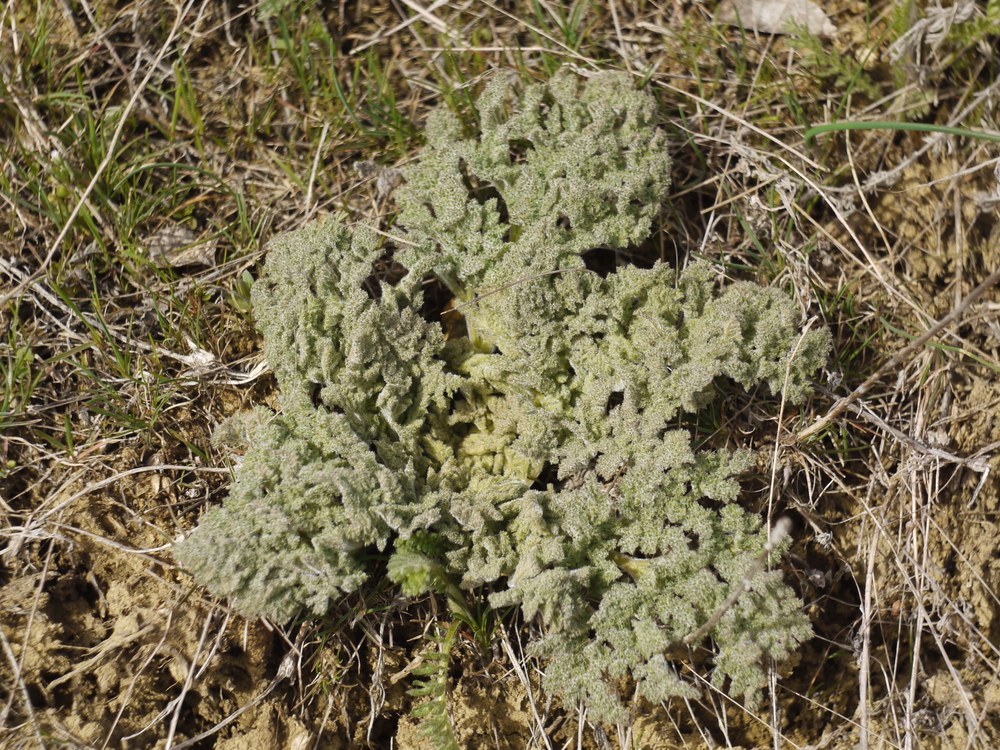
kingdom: Plantae
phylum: Tracheophyta
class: Magnoliopsida
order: Apiales
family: Apiaceae
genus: Ferula
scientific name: Ferula caspica
